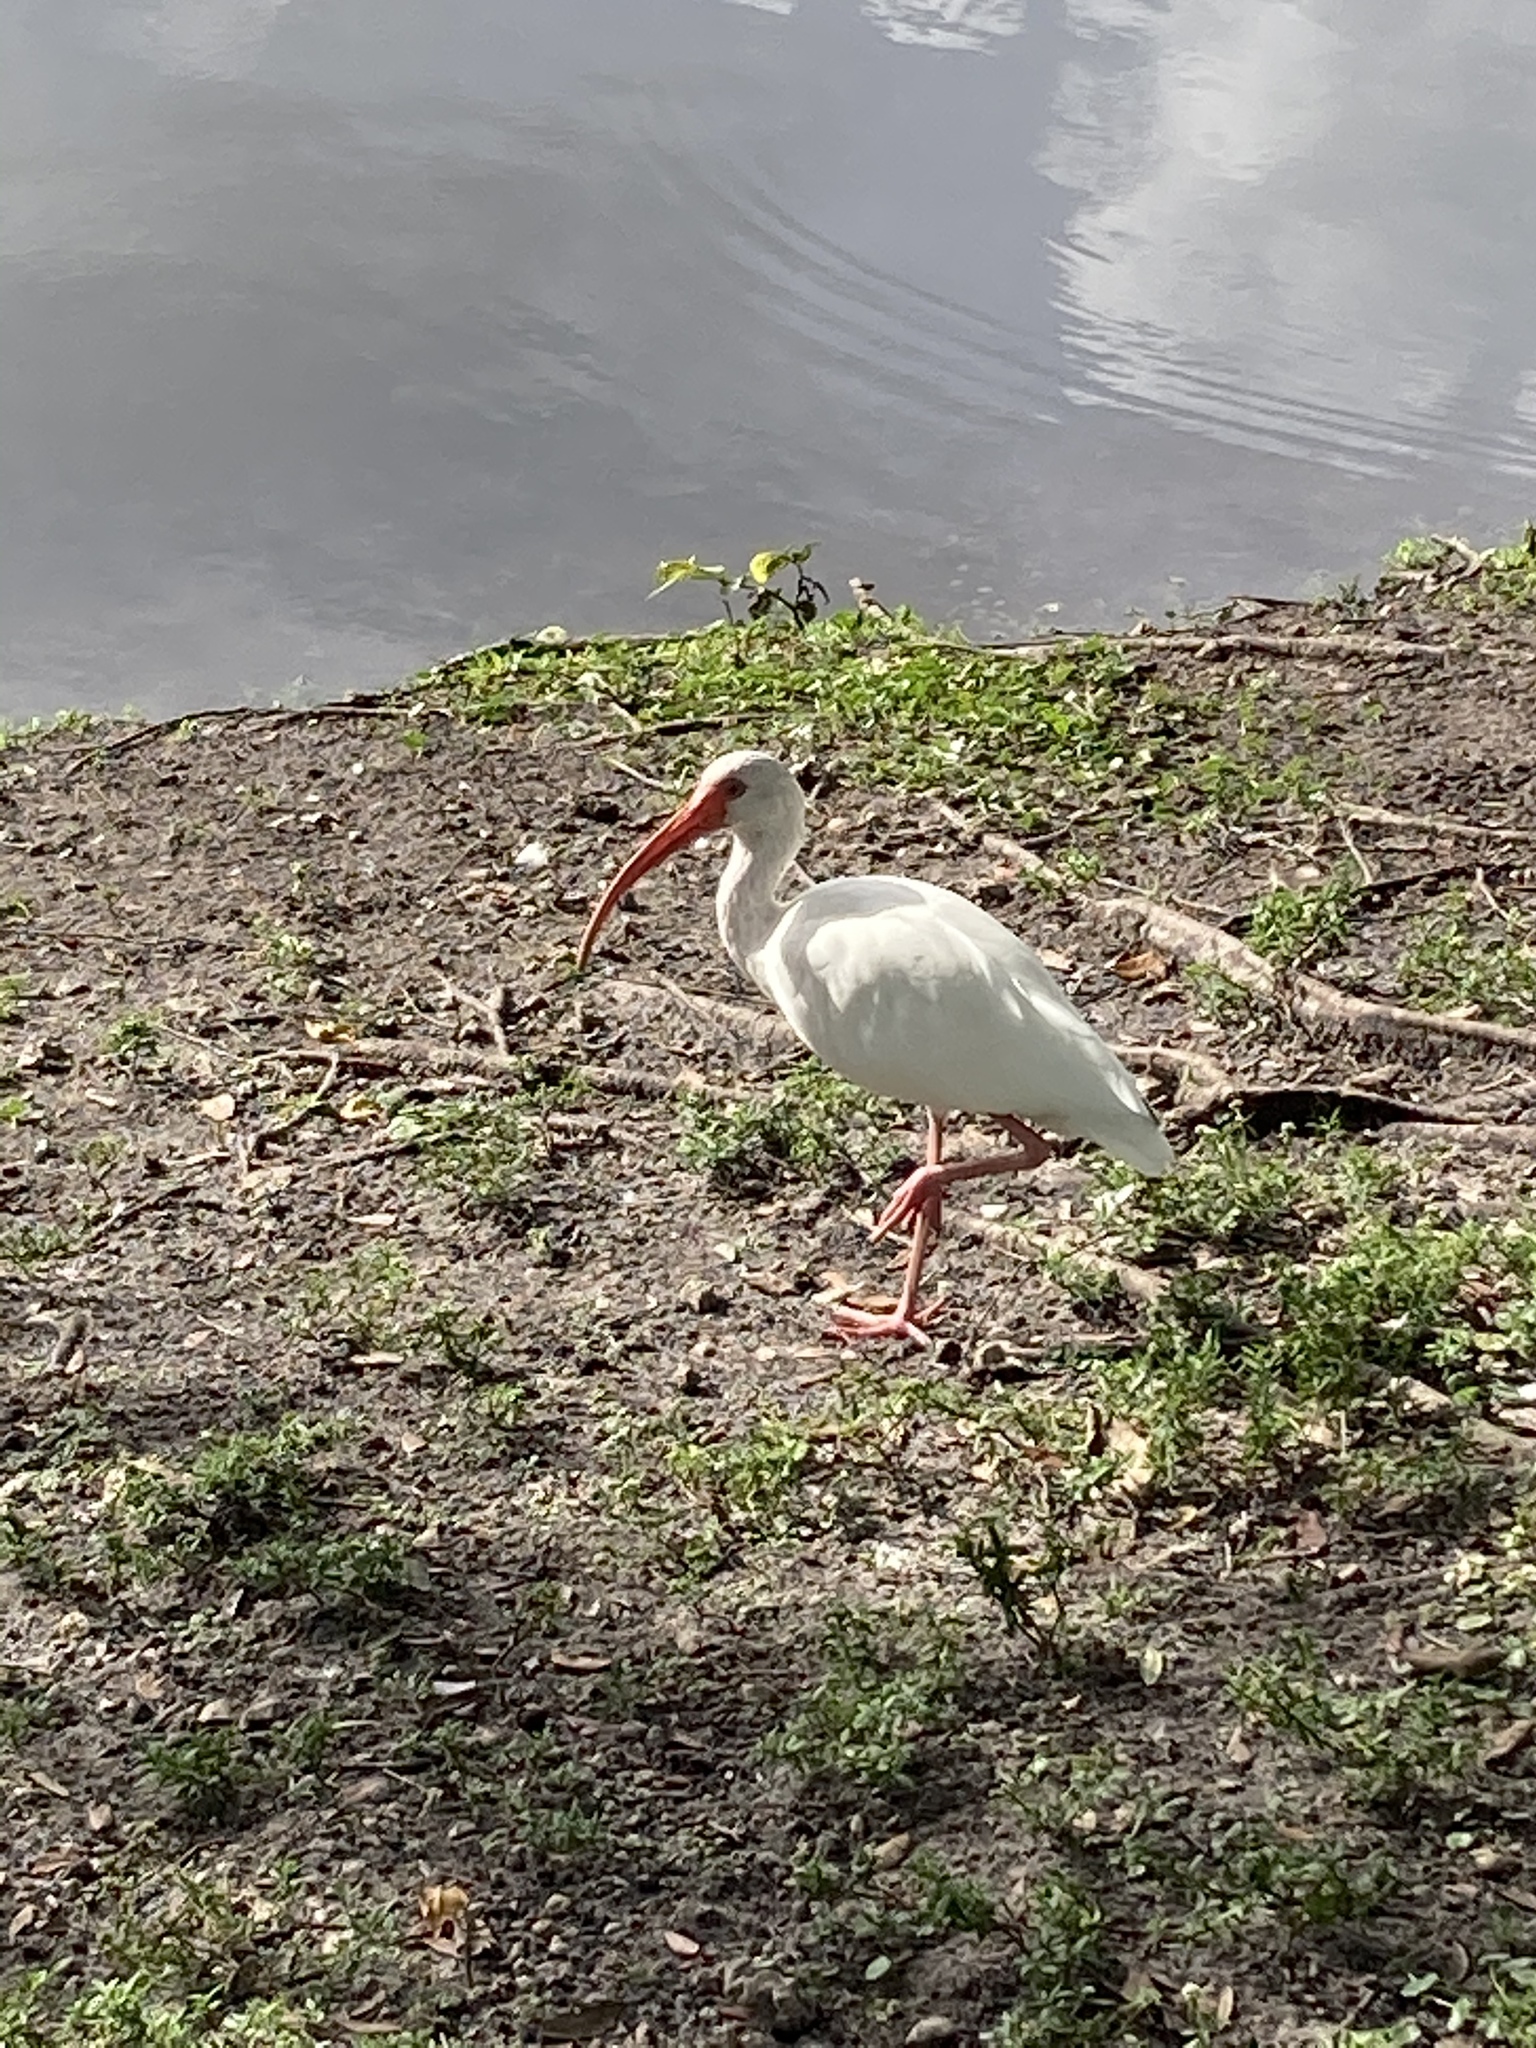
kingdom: Animalia
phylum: Chordata
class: Aves
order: Pelecaniformes
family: Threskiornithidae
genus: Eudocimus
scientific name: Eudocimus albus
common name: White ibis
